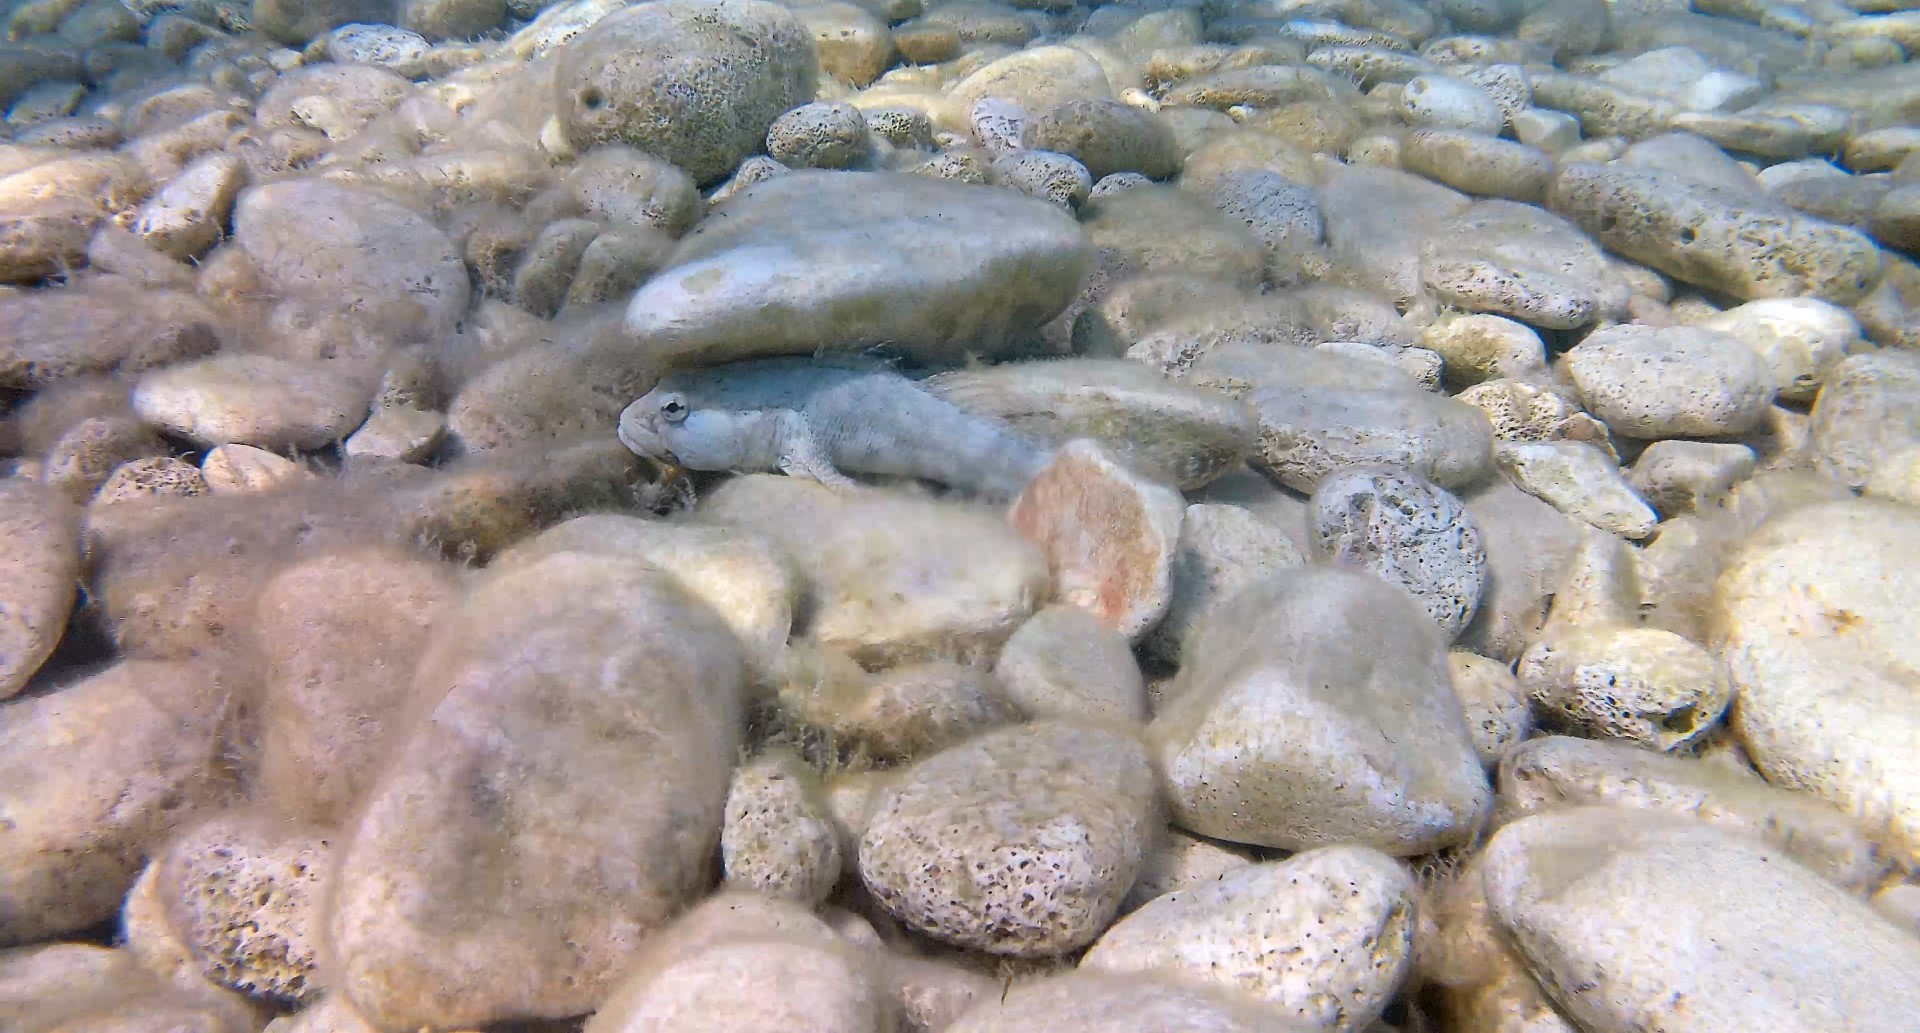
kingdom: Animalia
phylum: Chordata
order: Perciformes
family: Gobiidae
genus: Gobius
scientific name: Gobius cobitis
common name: Giant goby
